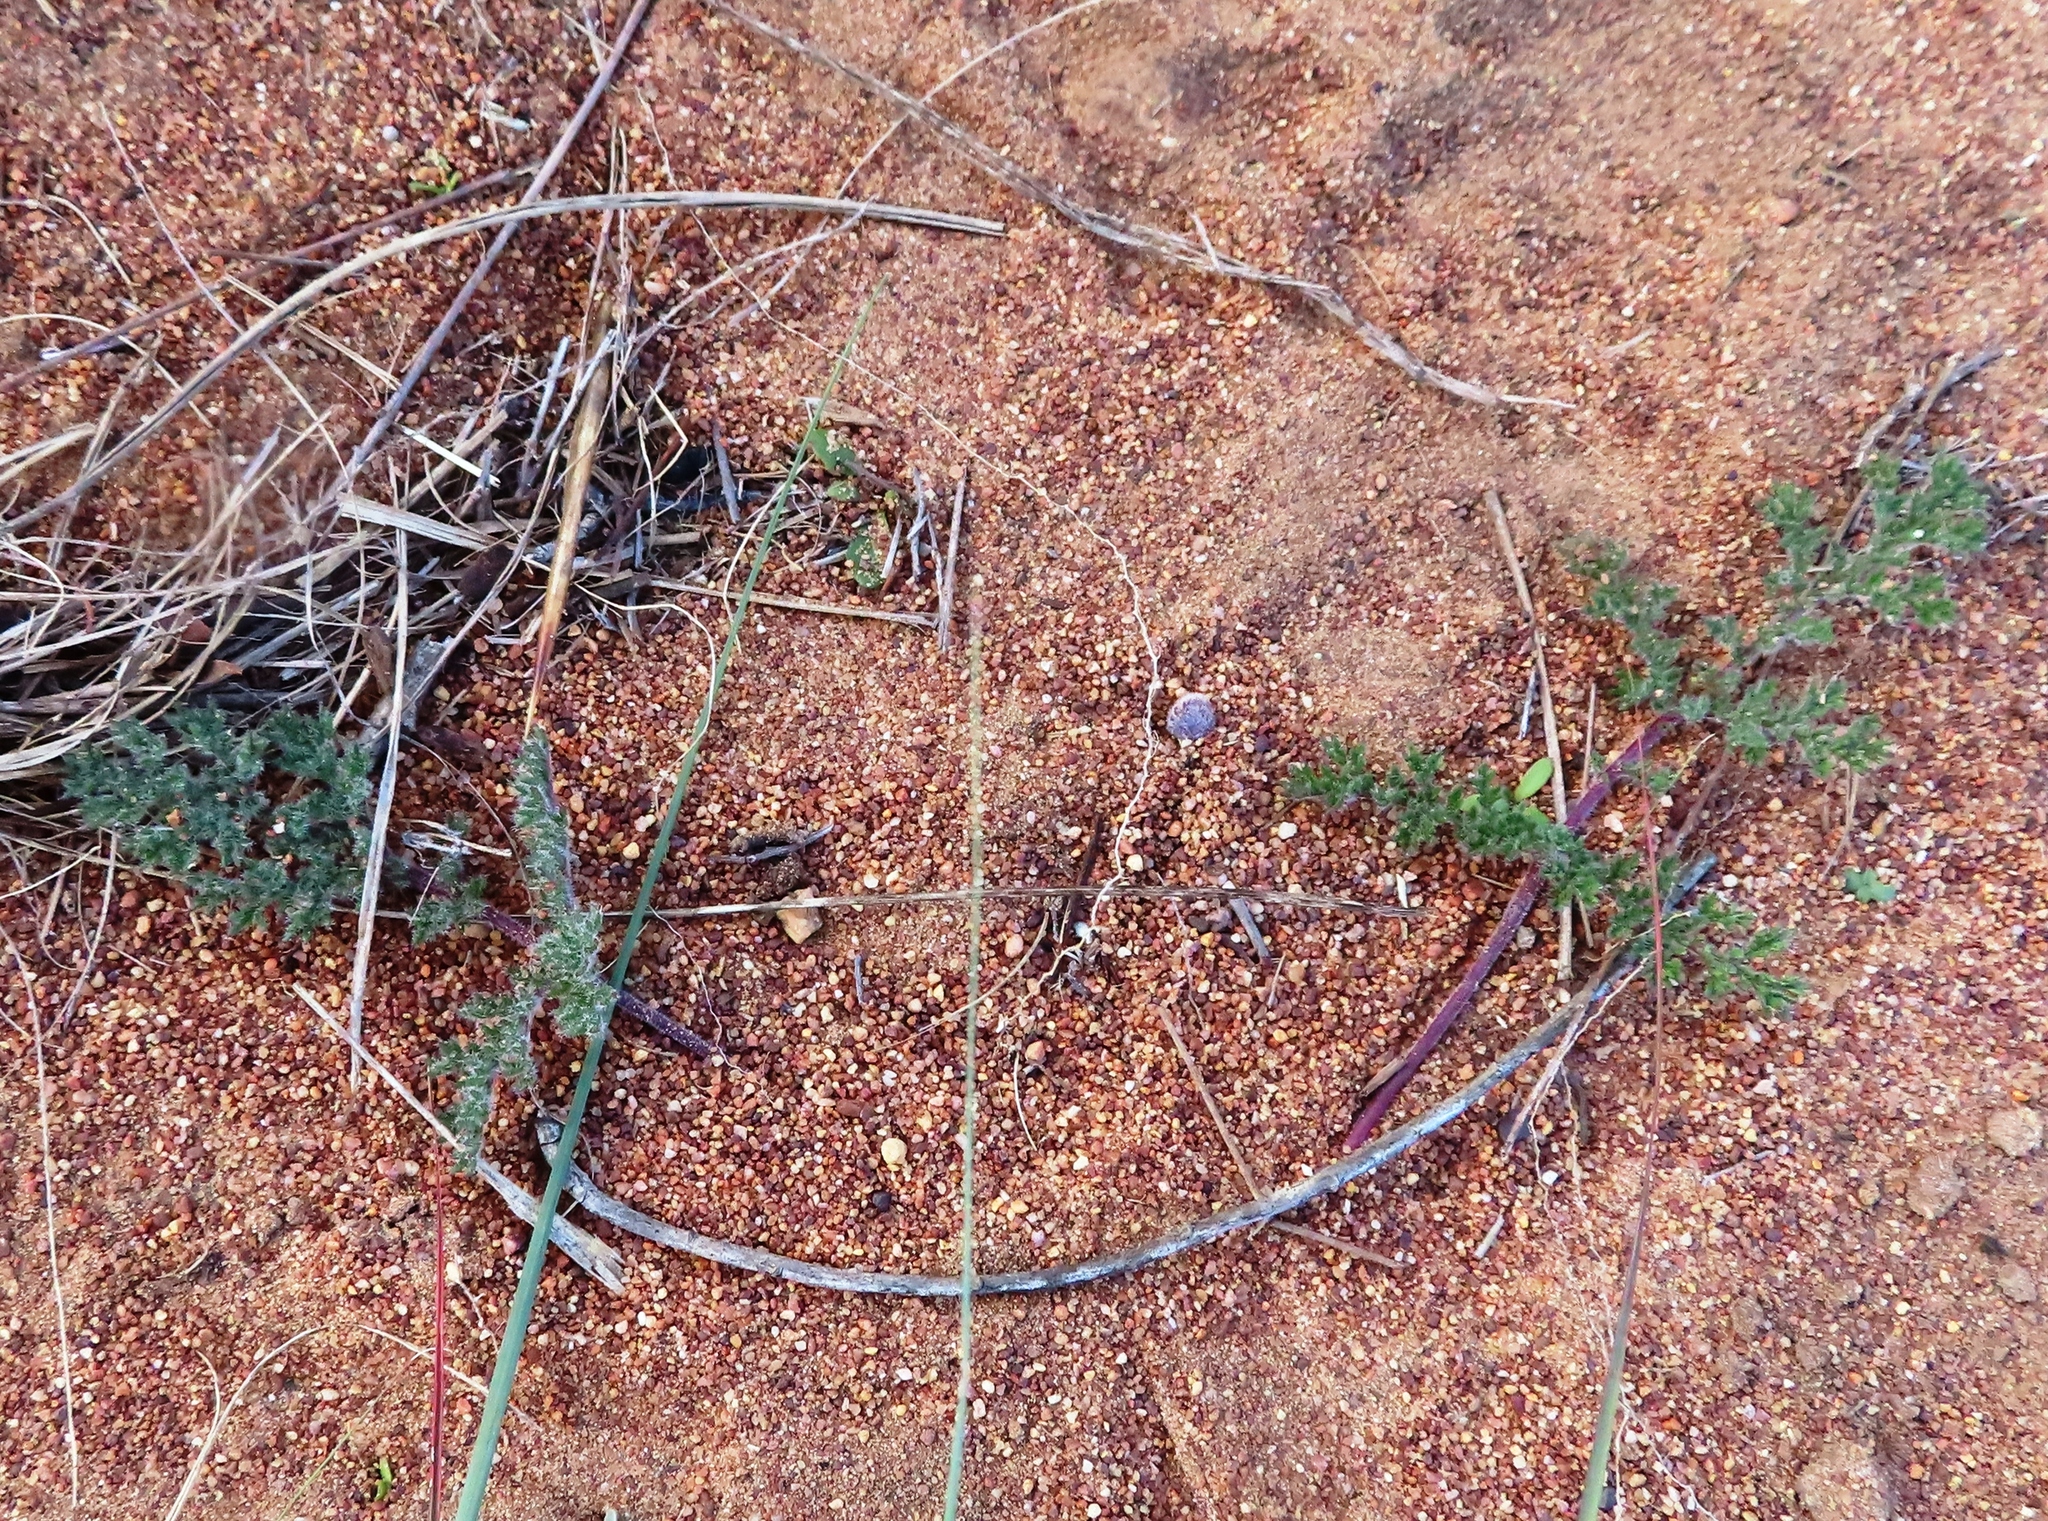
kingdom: Plantae
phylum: Tracheophyta
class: Magnoliopsida
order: Geraniales
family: Geraniaceae
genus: Pelargonium
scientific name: Pelargonium triste
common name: Night-scent pelargonium
